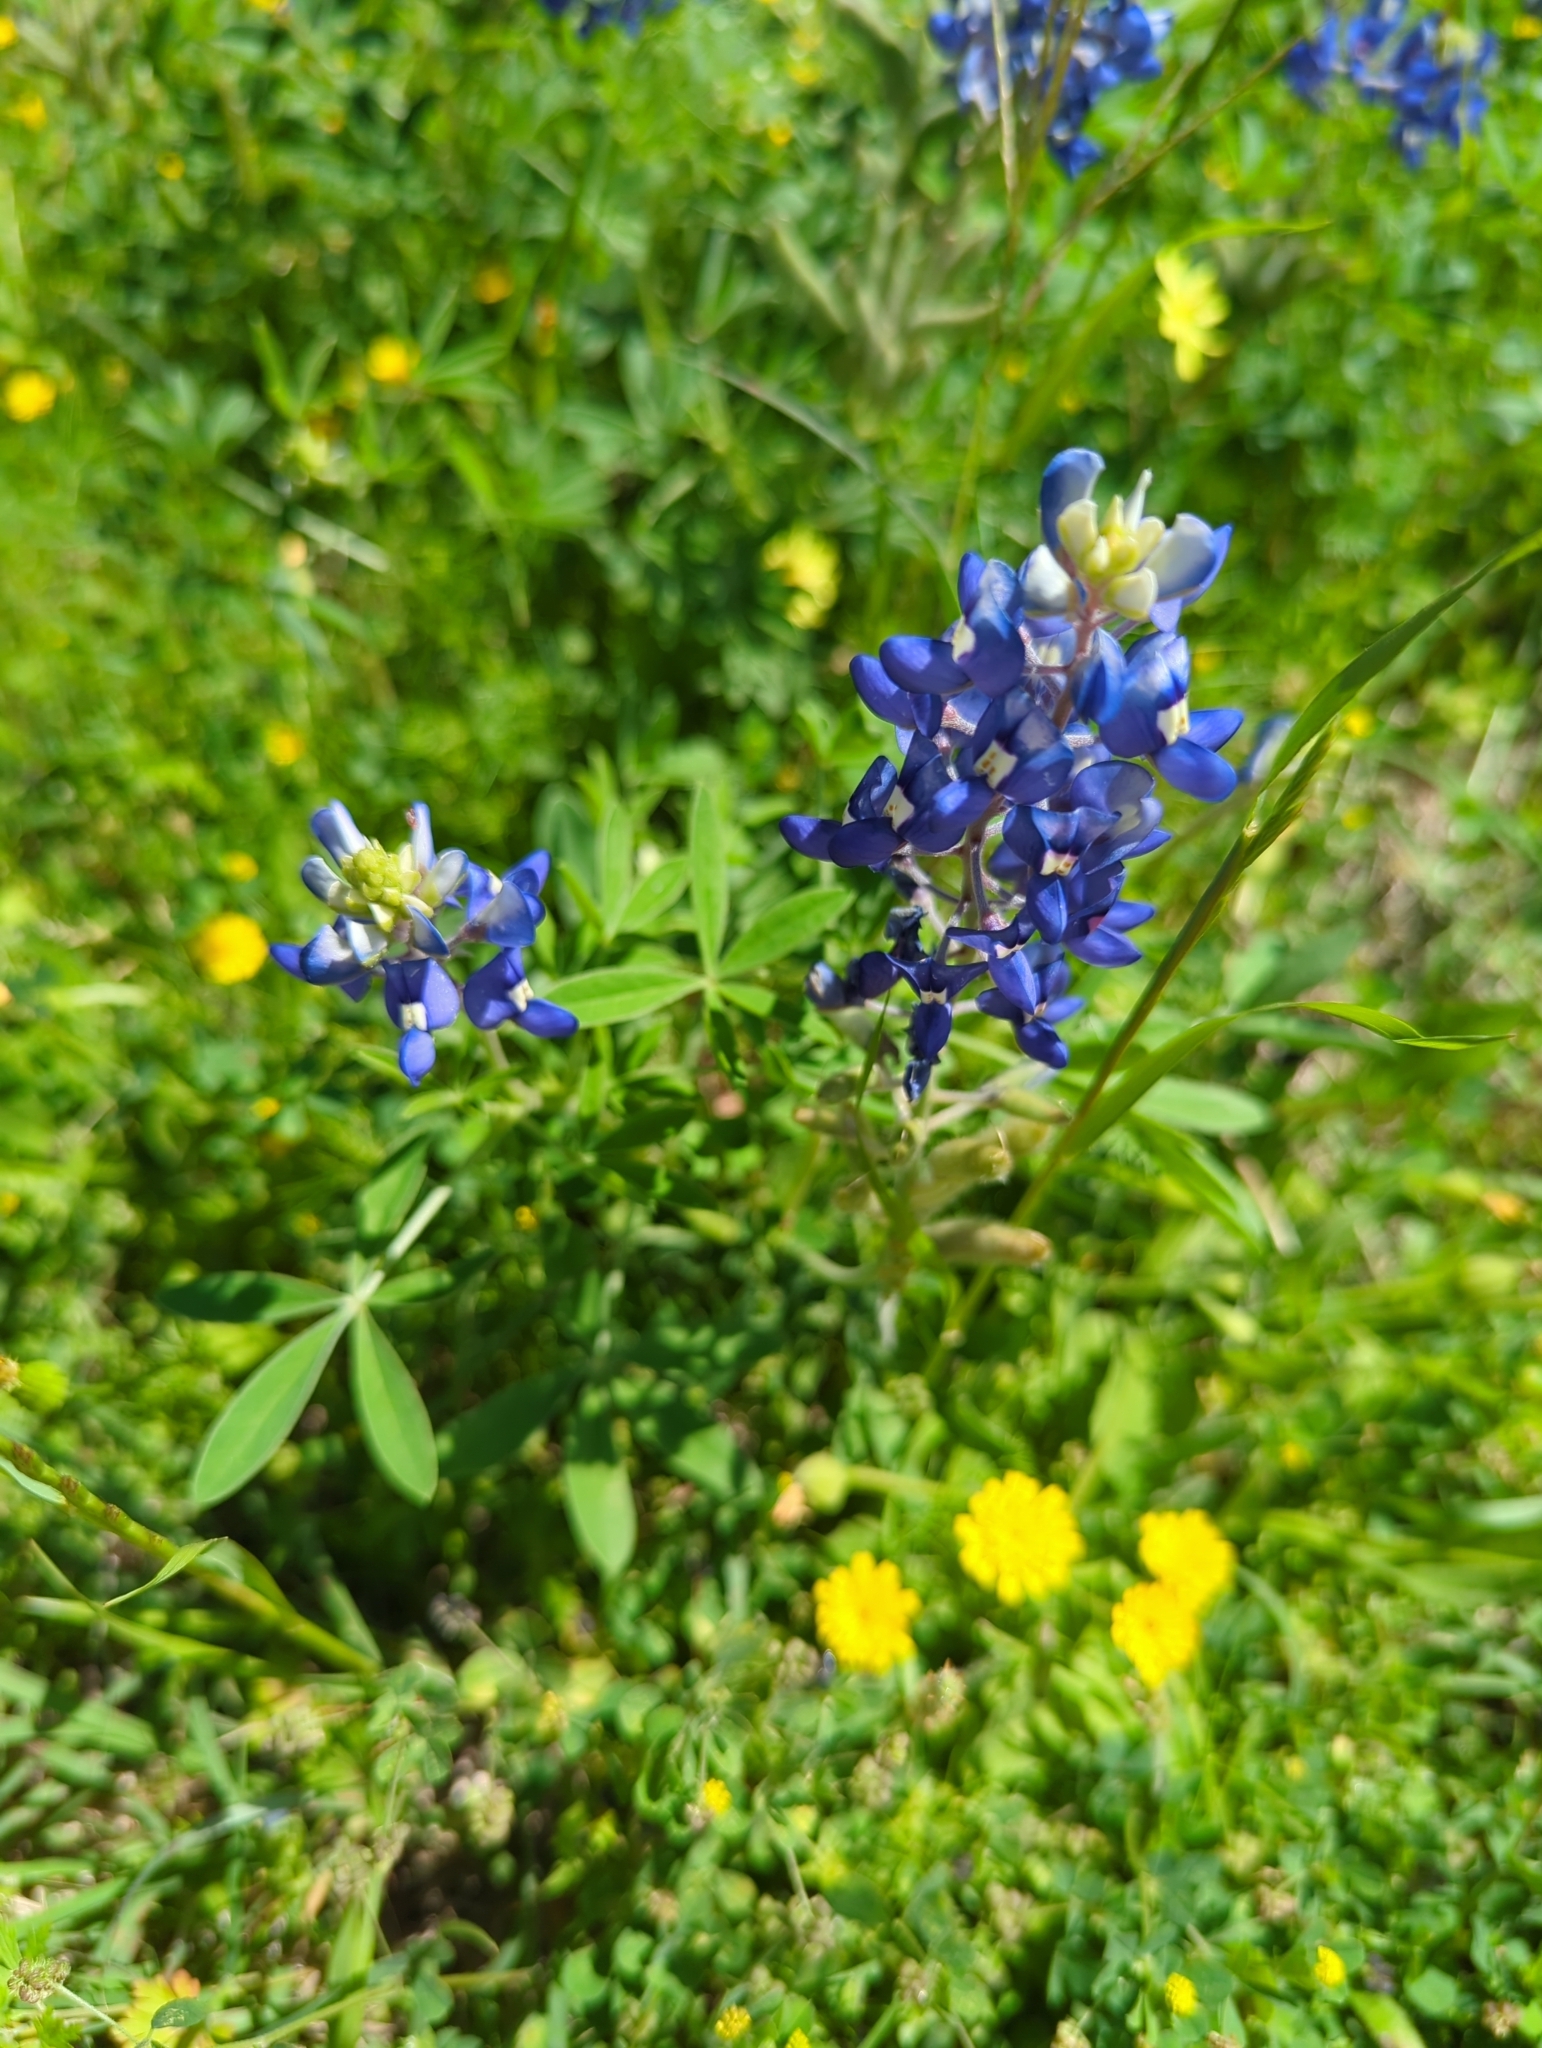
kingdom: Plantae
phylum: Tracheophyta
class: Magnoliopsida
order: Fabales
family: Fabaceae
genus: Lupinus
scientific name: Lupinus texensis
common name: Texas bluebonnet
